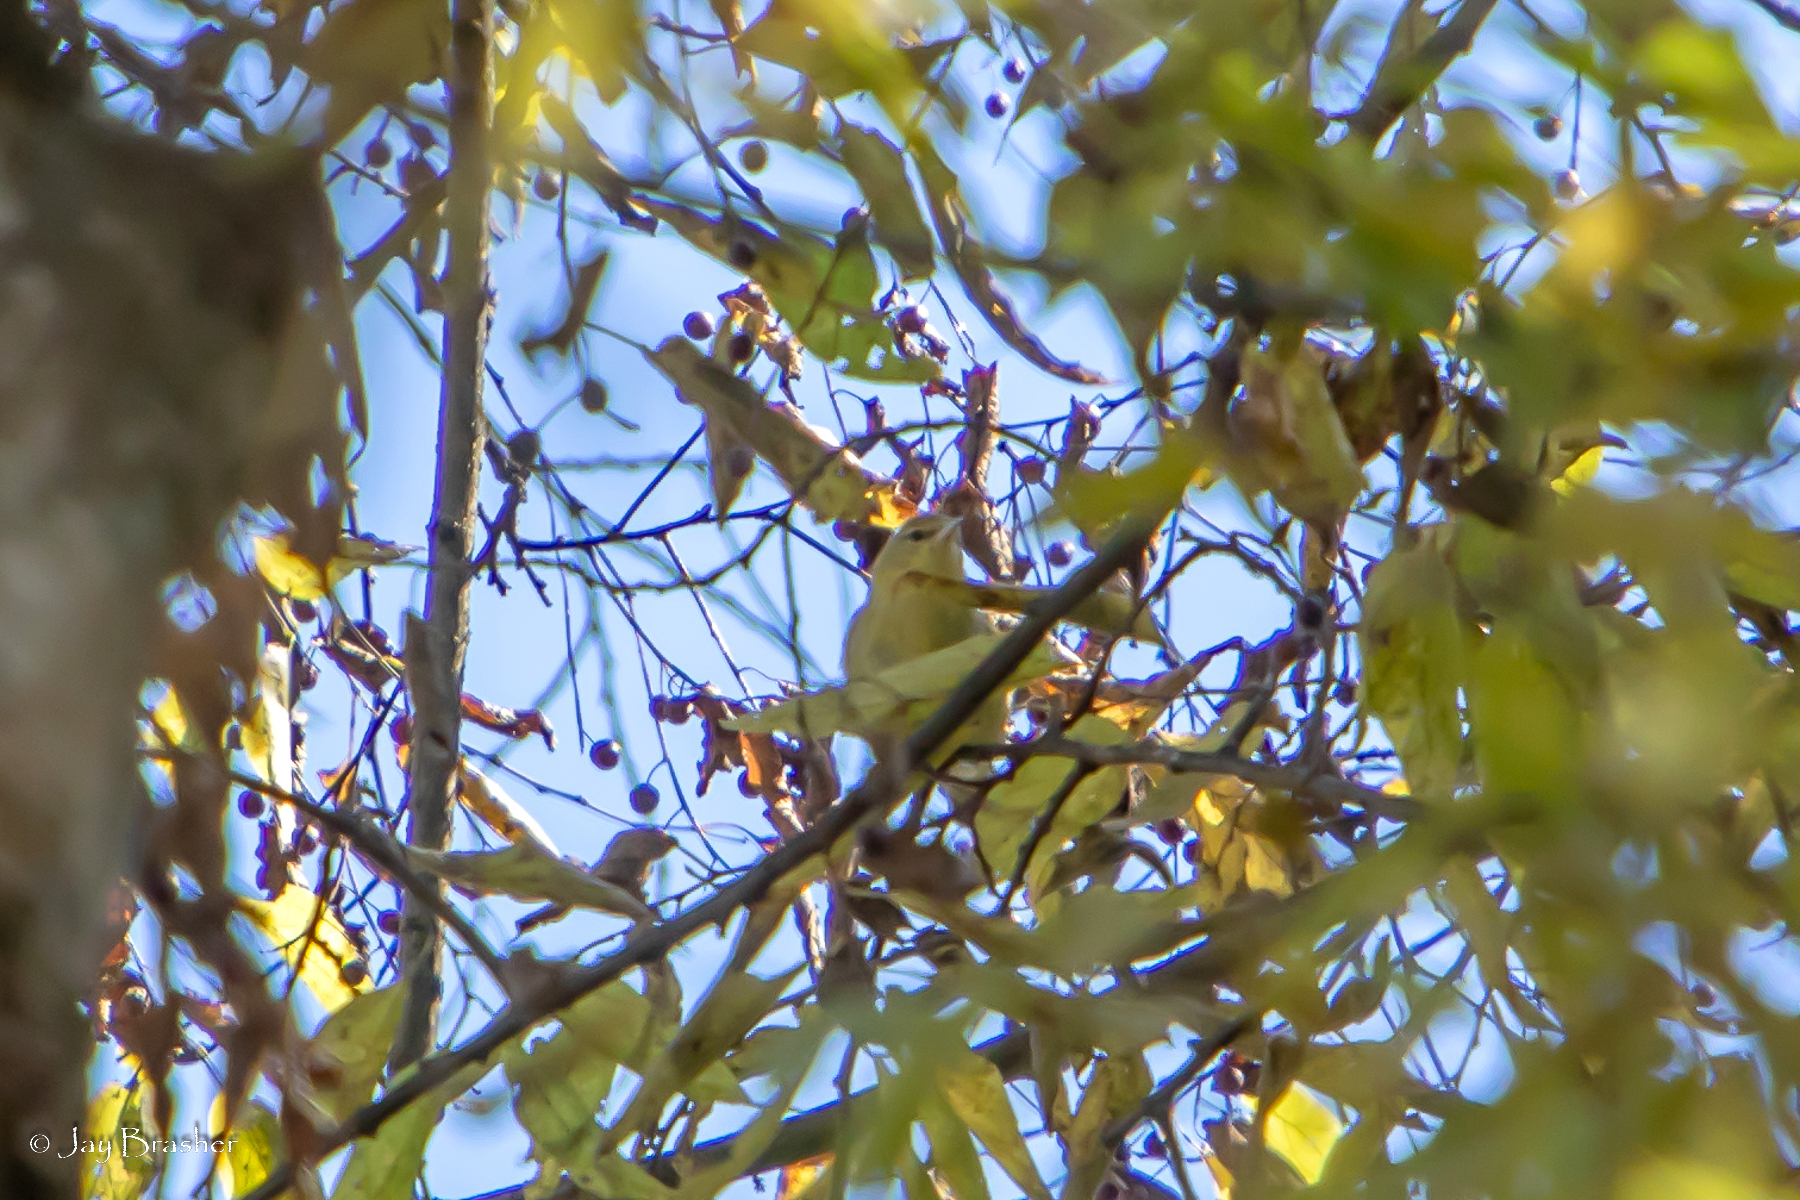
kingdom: Animalia
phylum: Chordata
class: Aves
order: Passeriformes
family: Parulidae
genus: Leiothlypis
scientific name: Leiothlypis peregrina
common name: Tennessee warbler
